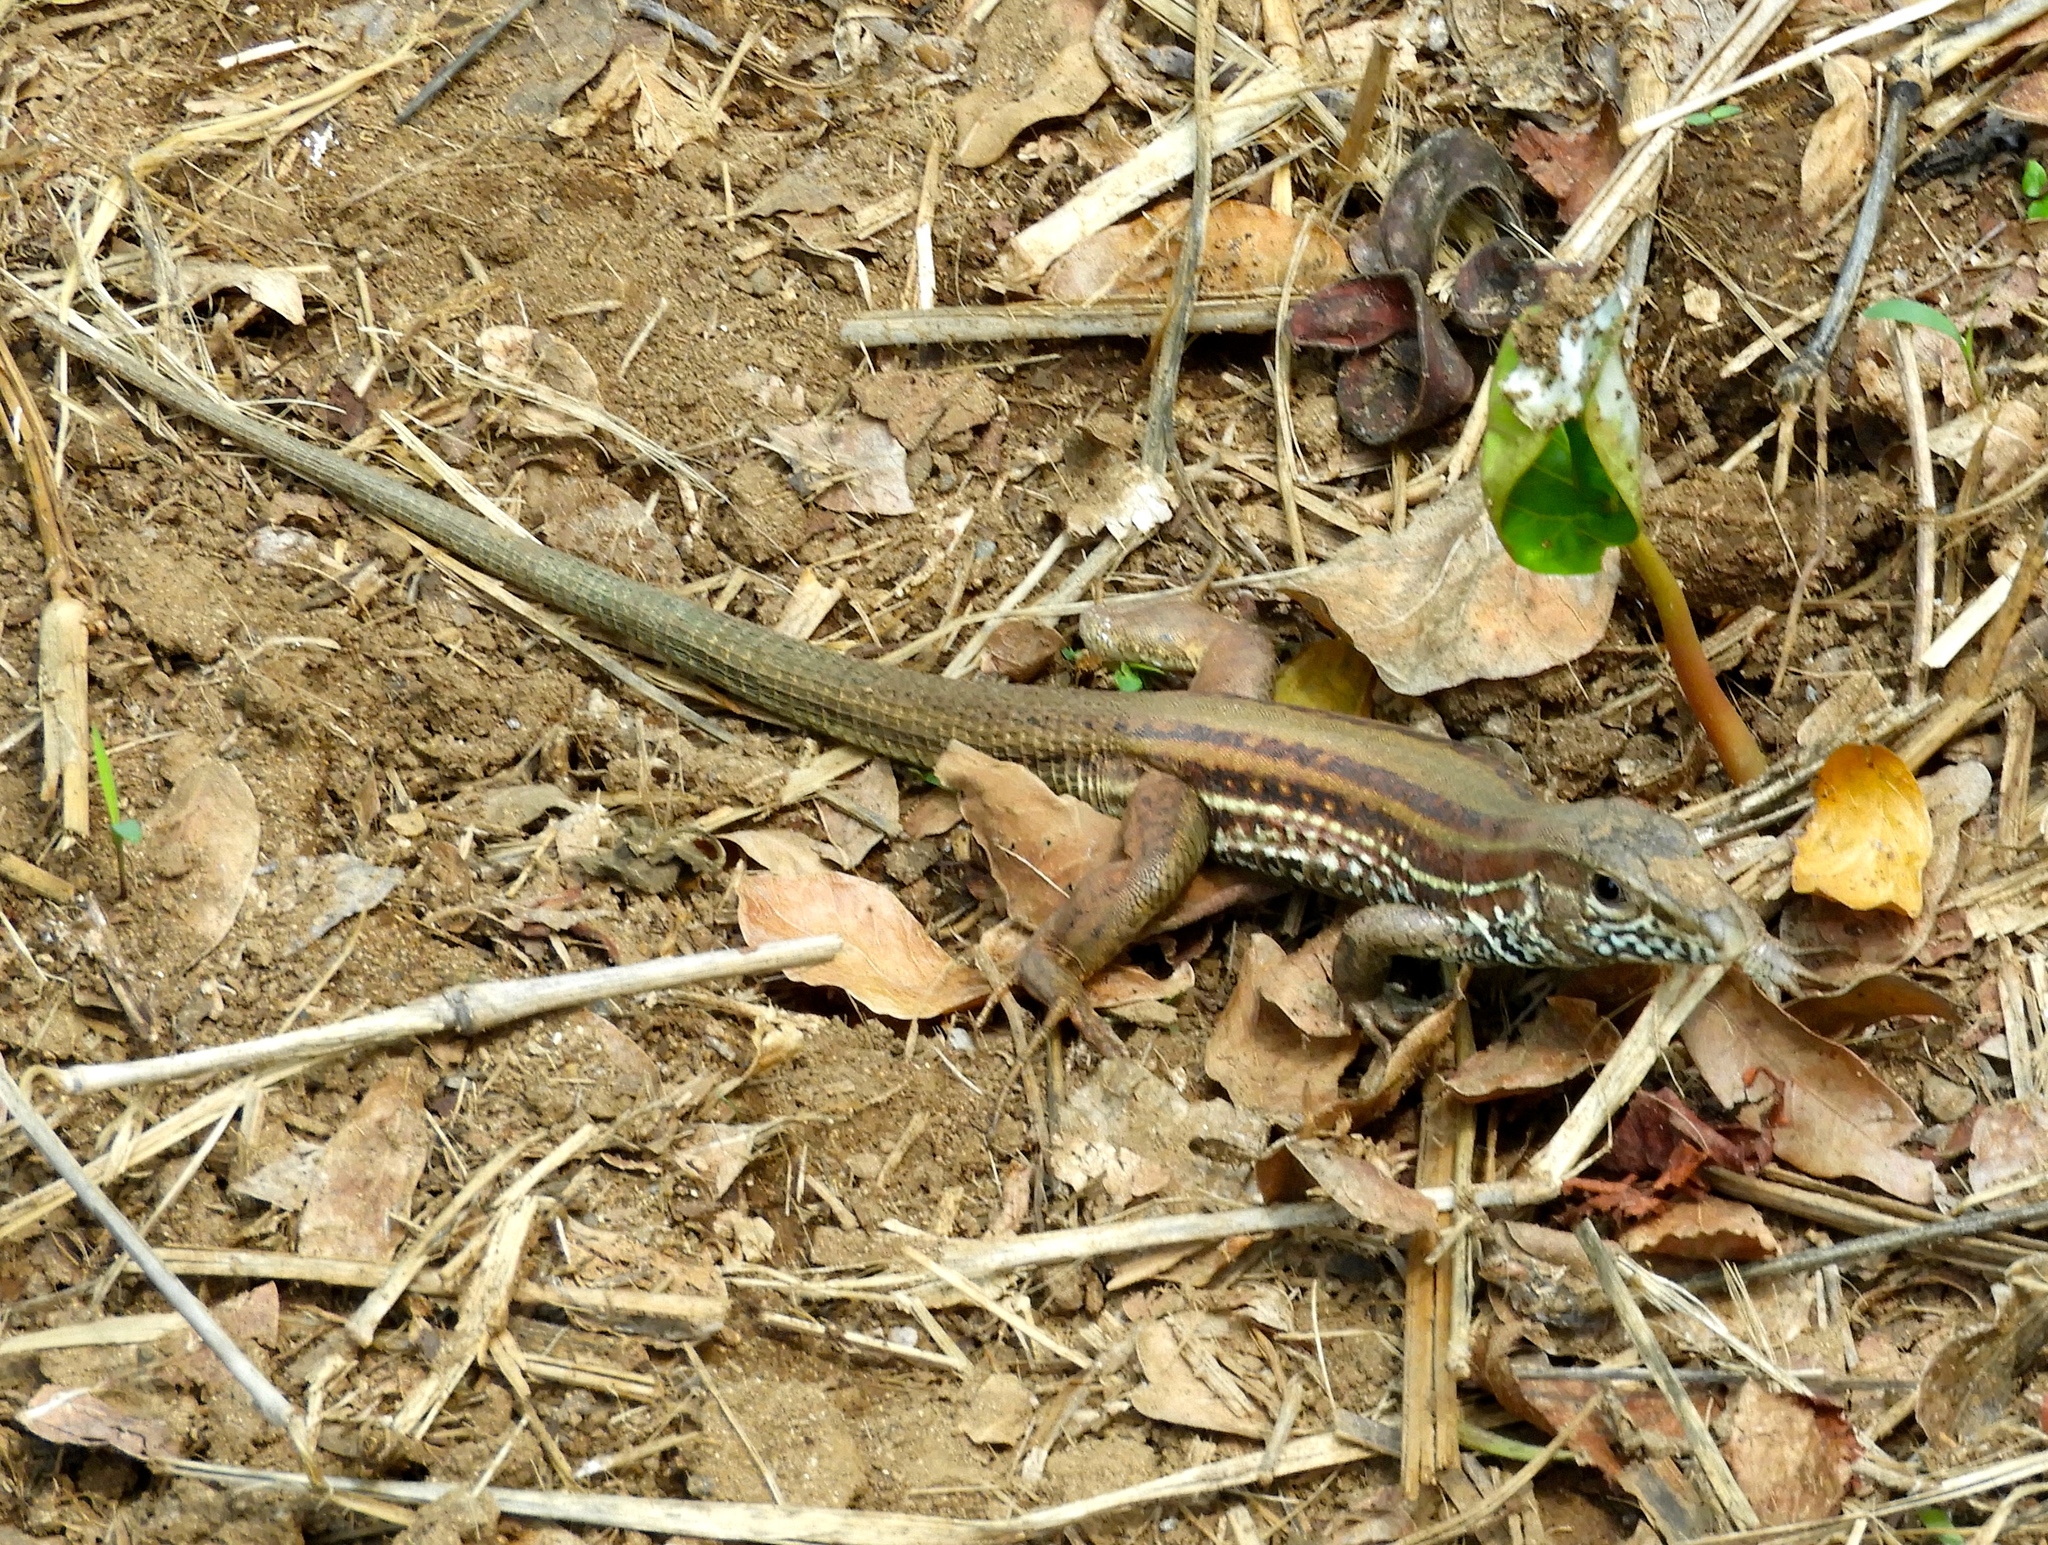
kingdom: Animalia
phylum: Chordata
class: Squamata
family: Teiidae
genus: Aspidoscelis
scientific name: Aspidoscelis costatus
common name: Western mexico whiptail
